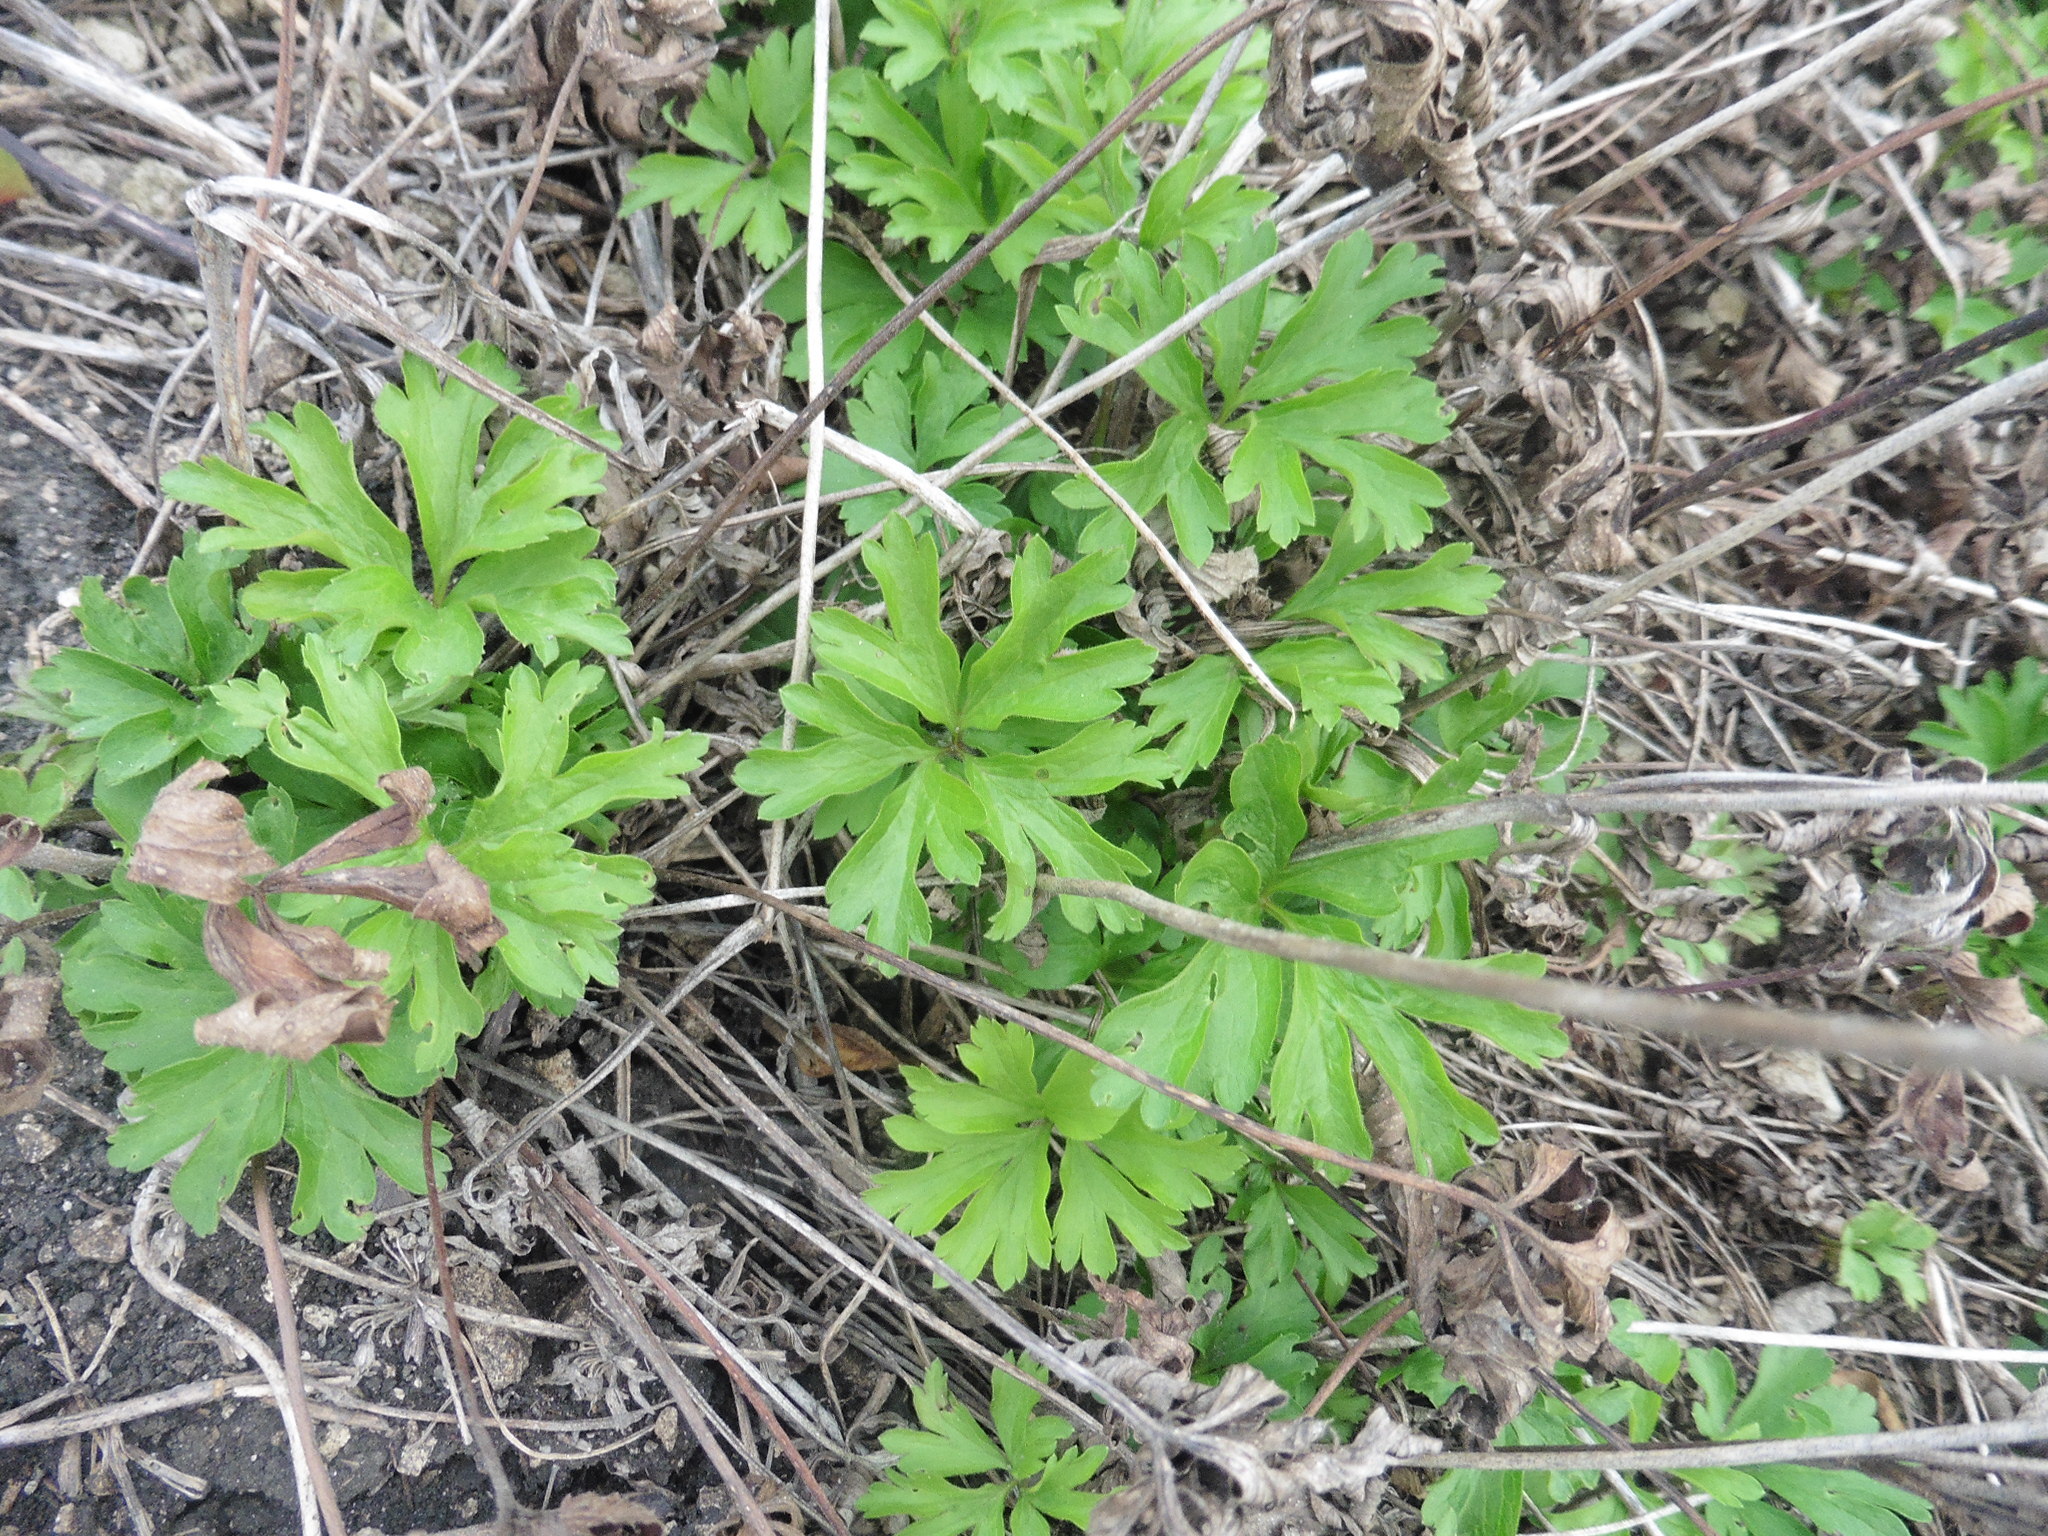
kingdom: Plantae
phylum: Tracheophyta
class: Magnoliopsida
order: Ranunculales
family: Ranunculaceae
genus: Anemone
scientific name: Anemone sylvestris
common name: Snowdrop anemone
